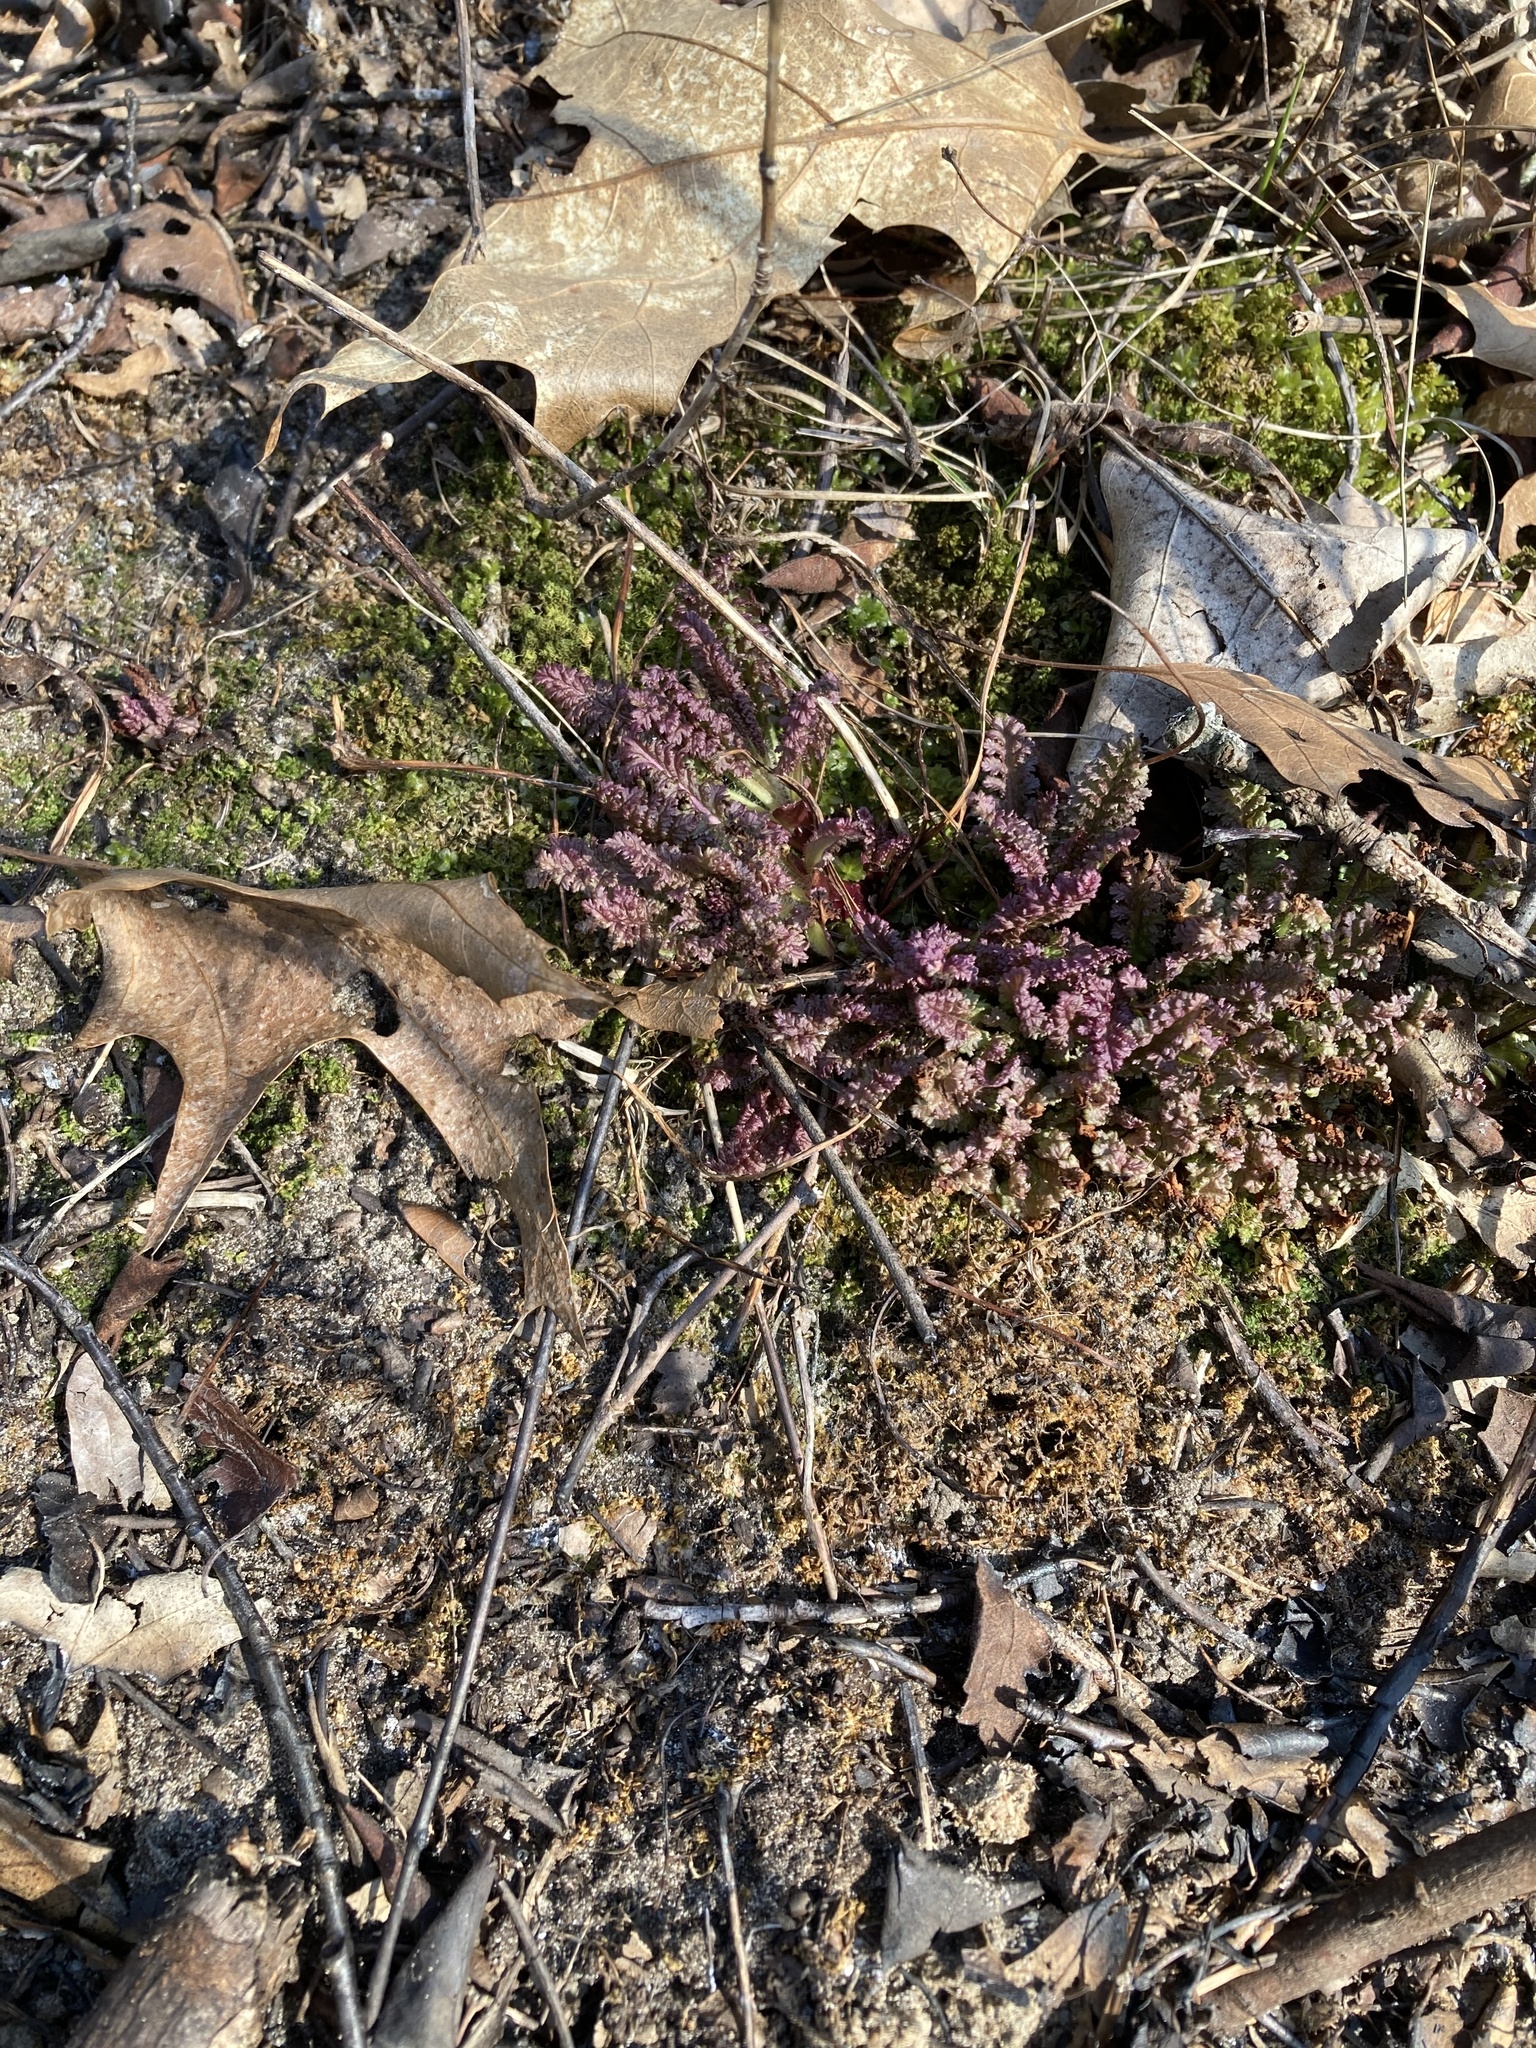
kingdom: Plantae
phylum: Tracheophyta
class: Magnoliopsida
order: Lamiales
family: Orobanchaceae
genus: Pedicularis
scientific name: Pedicularis canadensis
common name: Early lousewort
